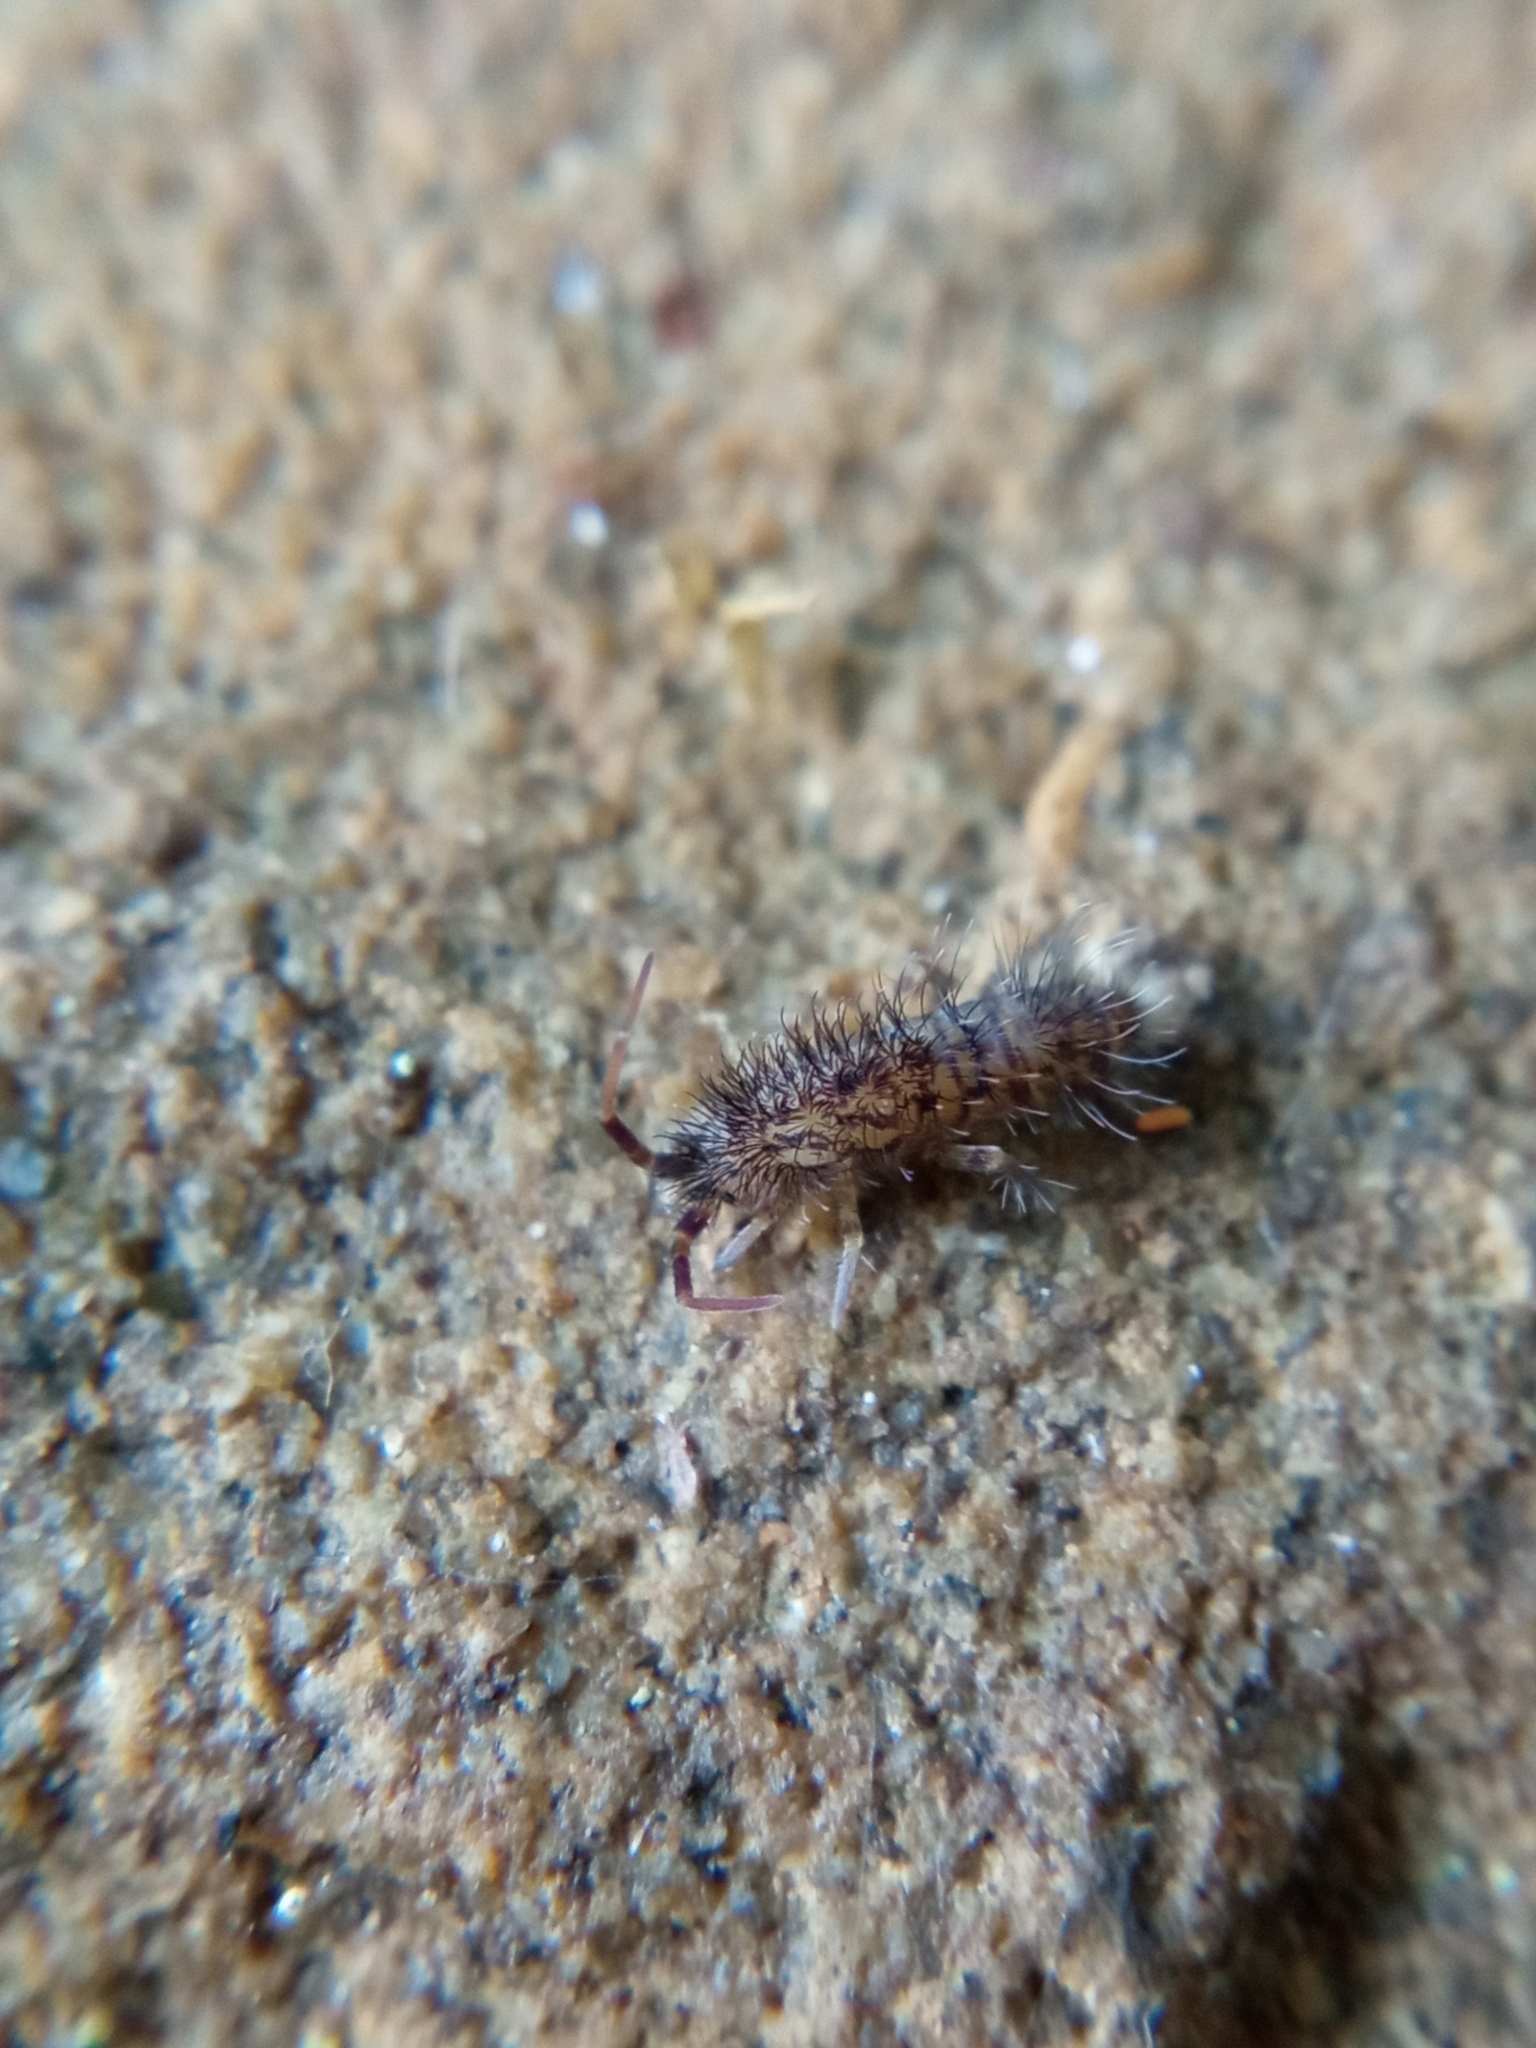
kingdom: Animalia
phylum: Arthropoda
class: Collembola
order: Entomobryomorpha
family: Orchesellidae
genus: Orchesella
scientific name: Orchesella villosa
